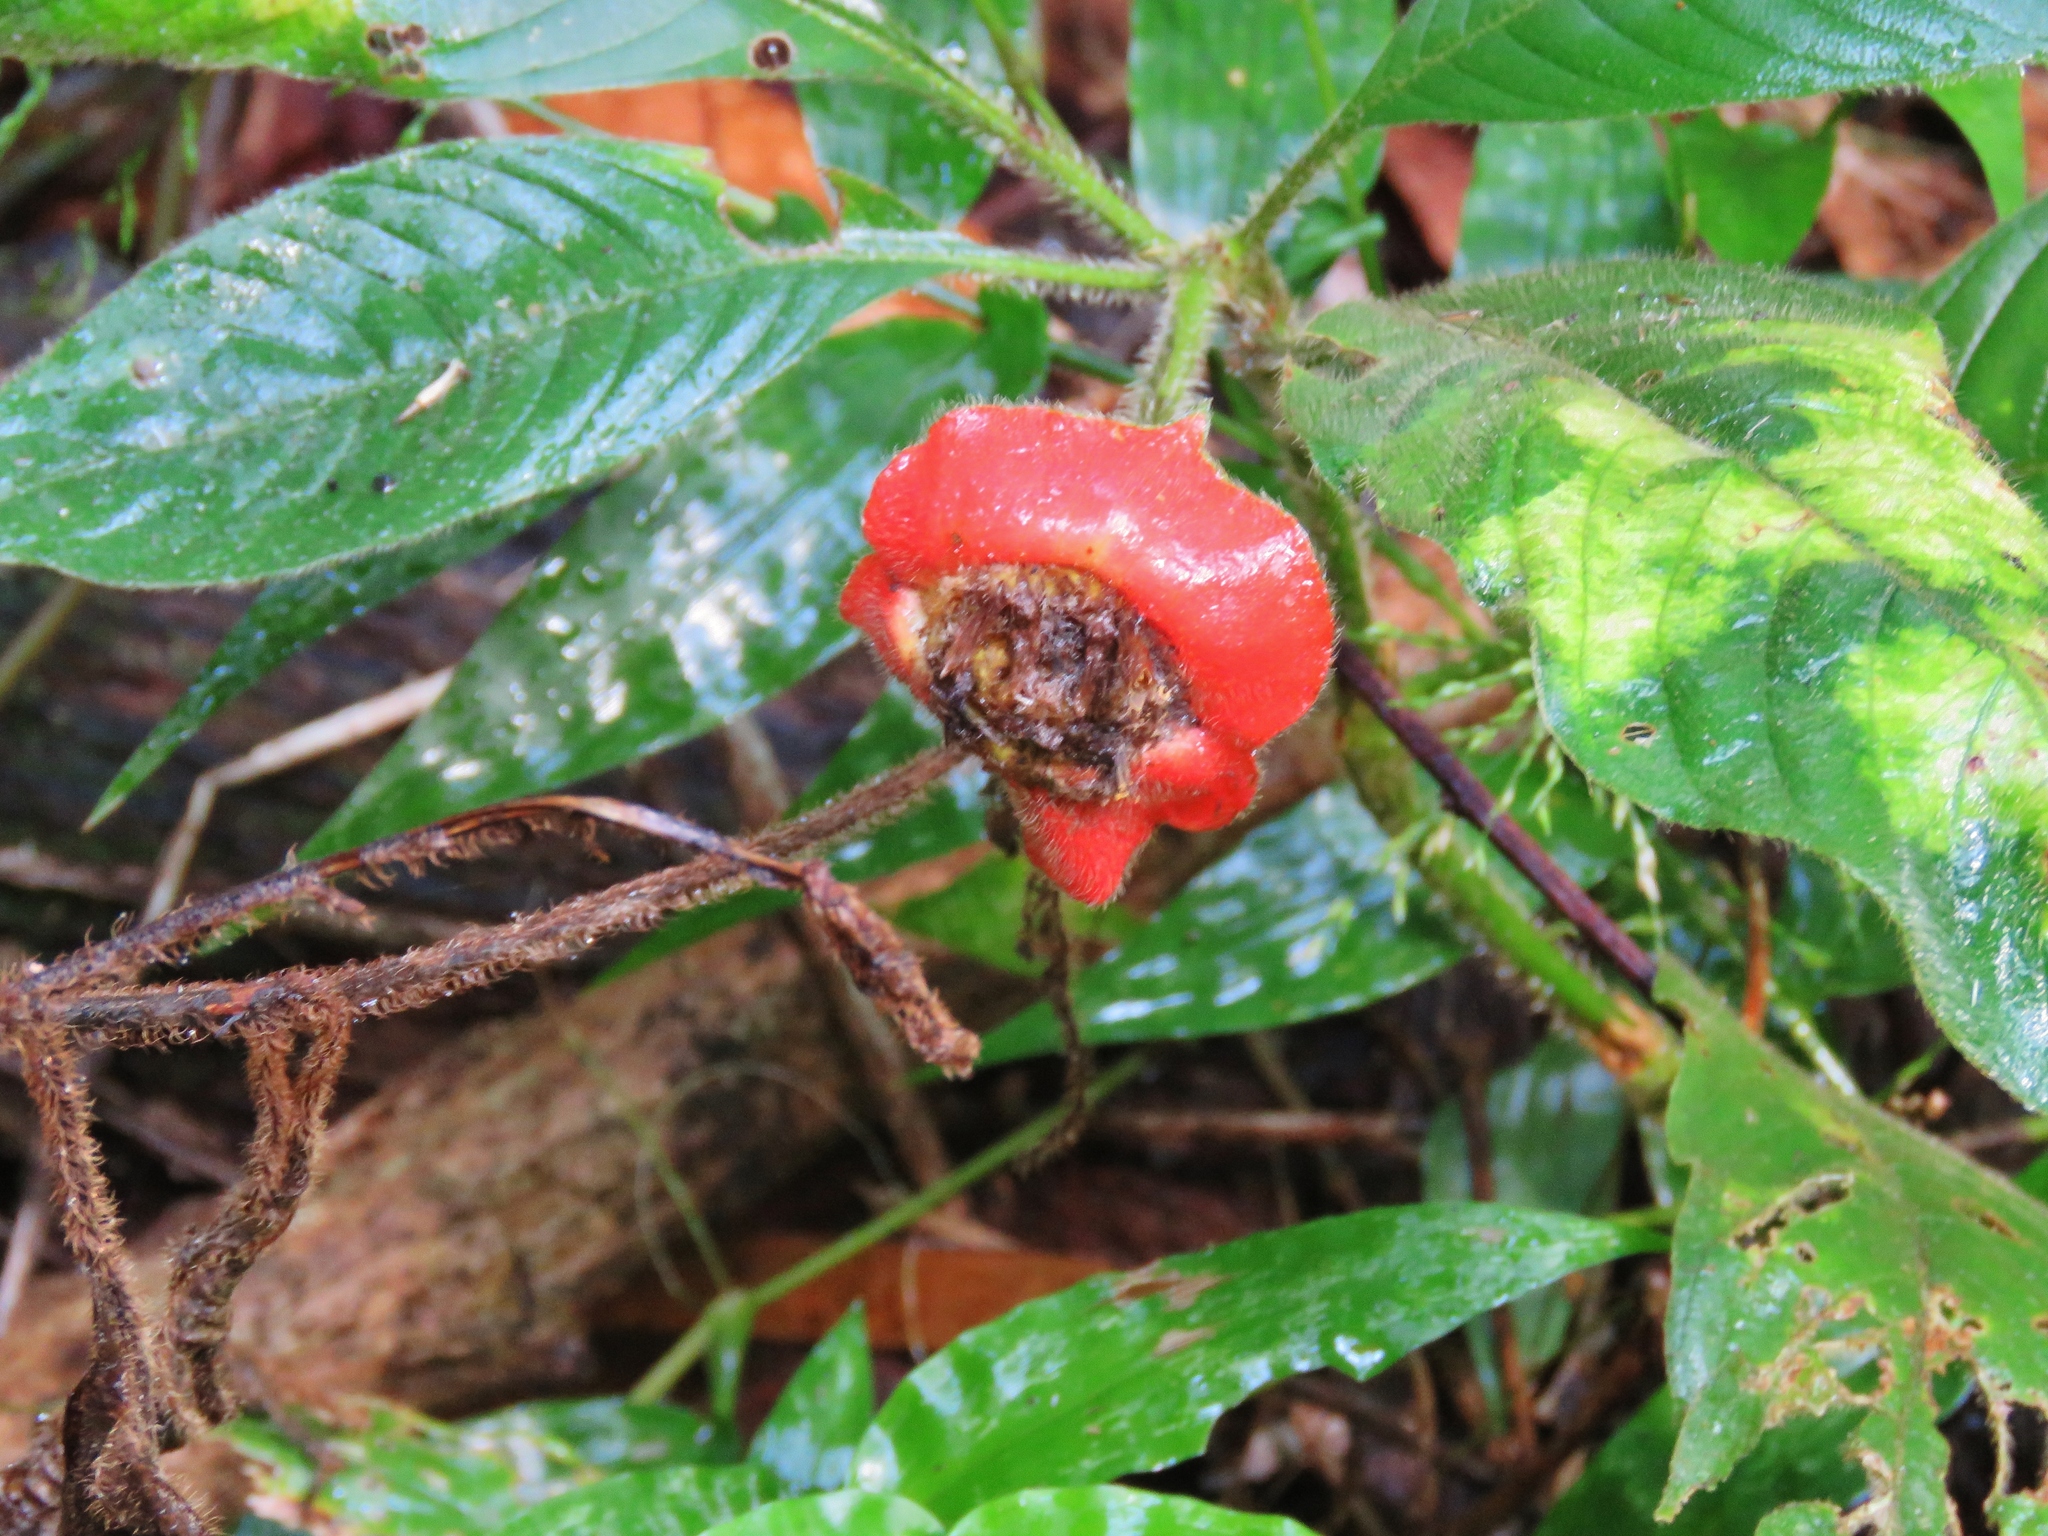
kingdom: Plantae
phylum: Tracheophyta
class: Magnoliopsida
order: Gentianales
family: Rubiaceae
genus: Palicourea
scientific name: Palicourea tomentosa
